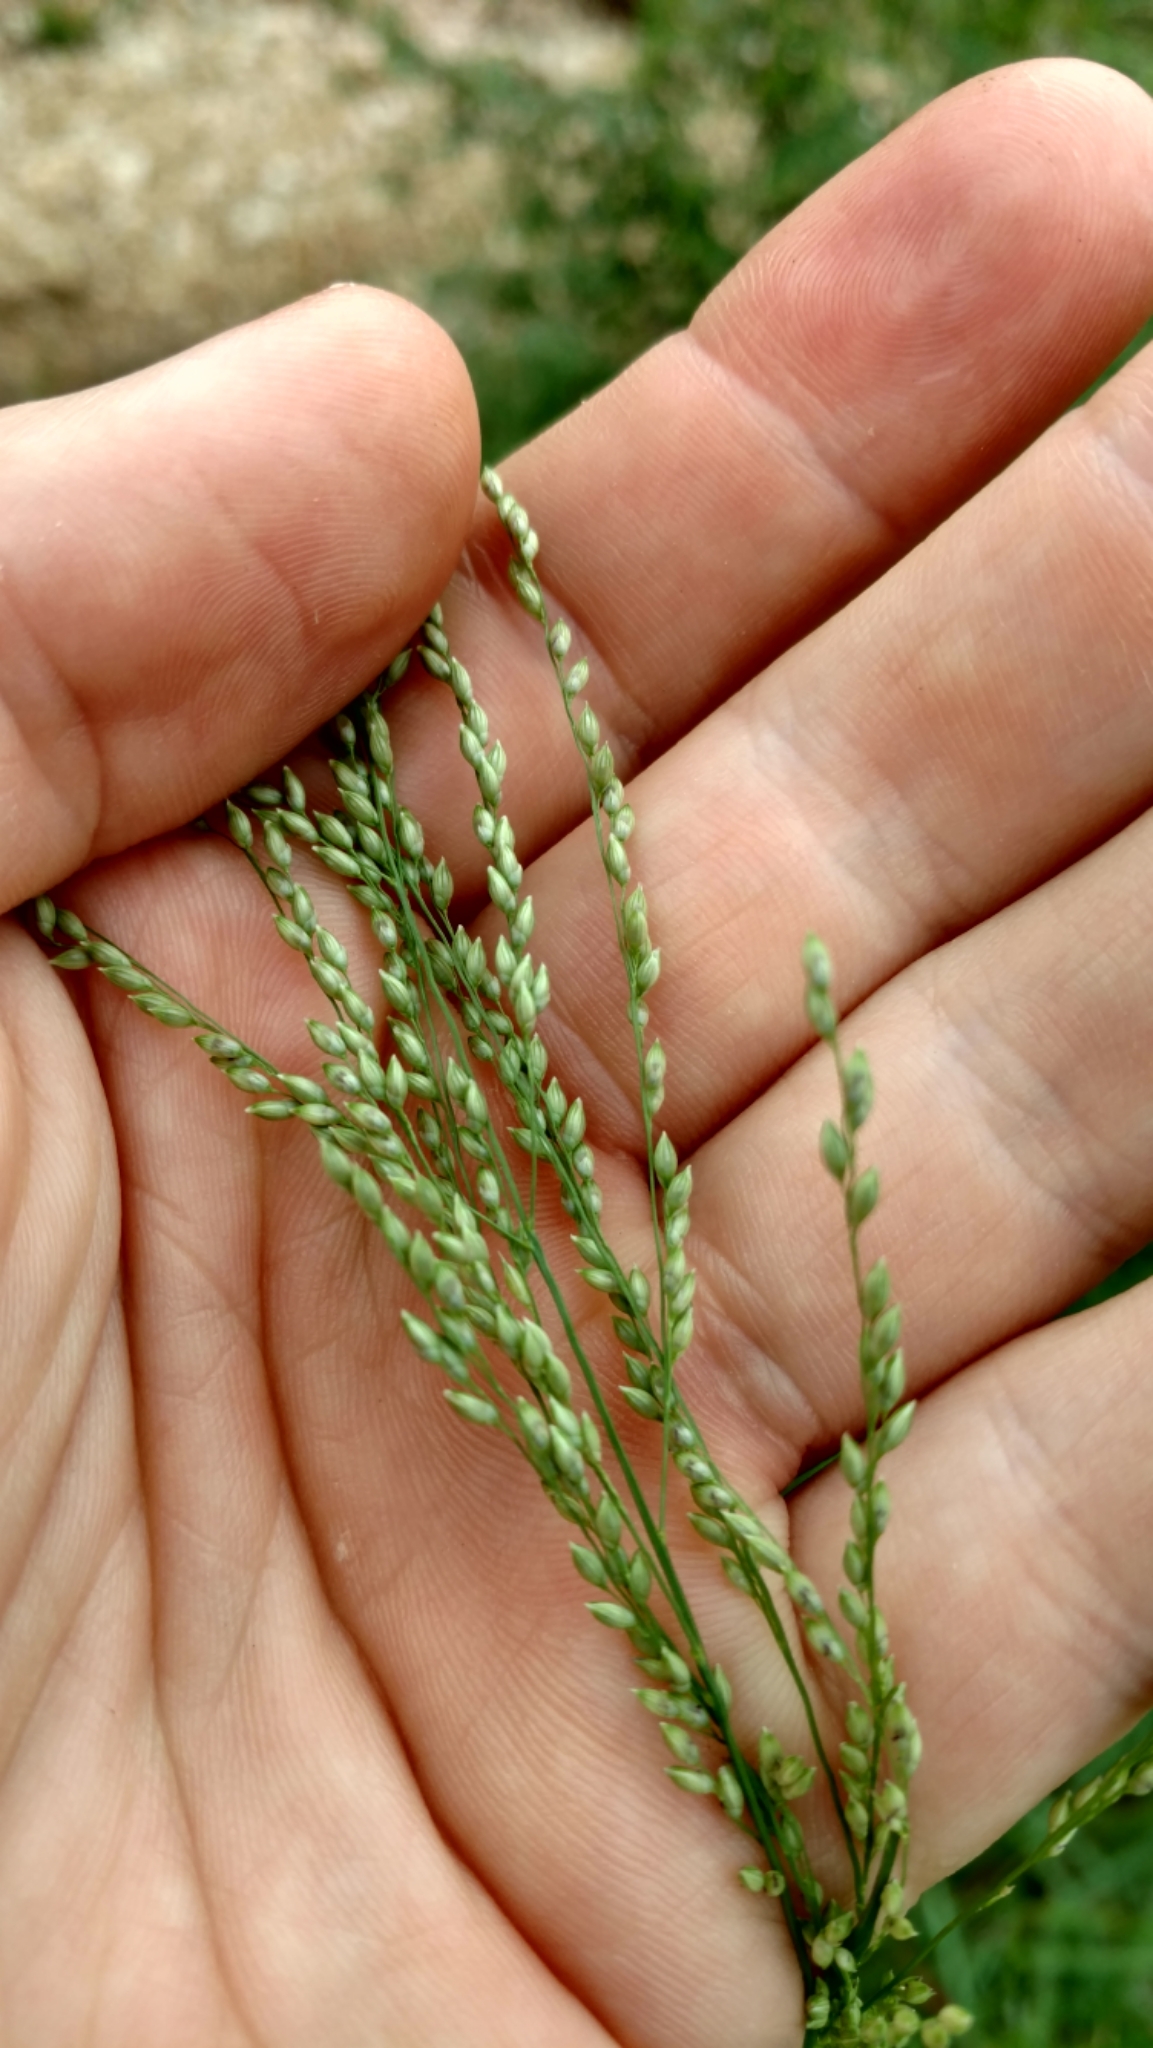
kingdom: Plantae
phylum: Tracheophyta
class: Liliopsida
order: Poales
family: Poaceae
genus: Panicum
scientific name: Panicum coloratum
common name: Kleingrass
